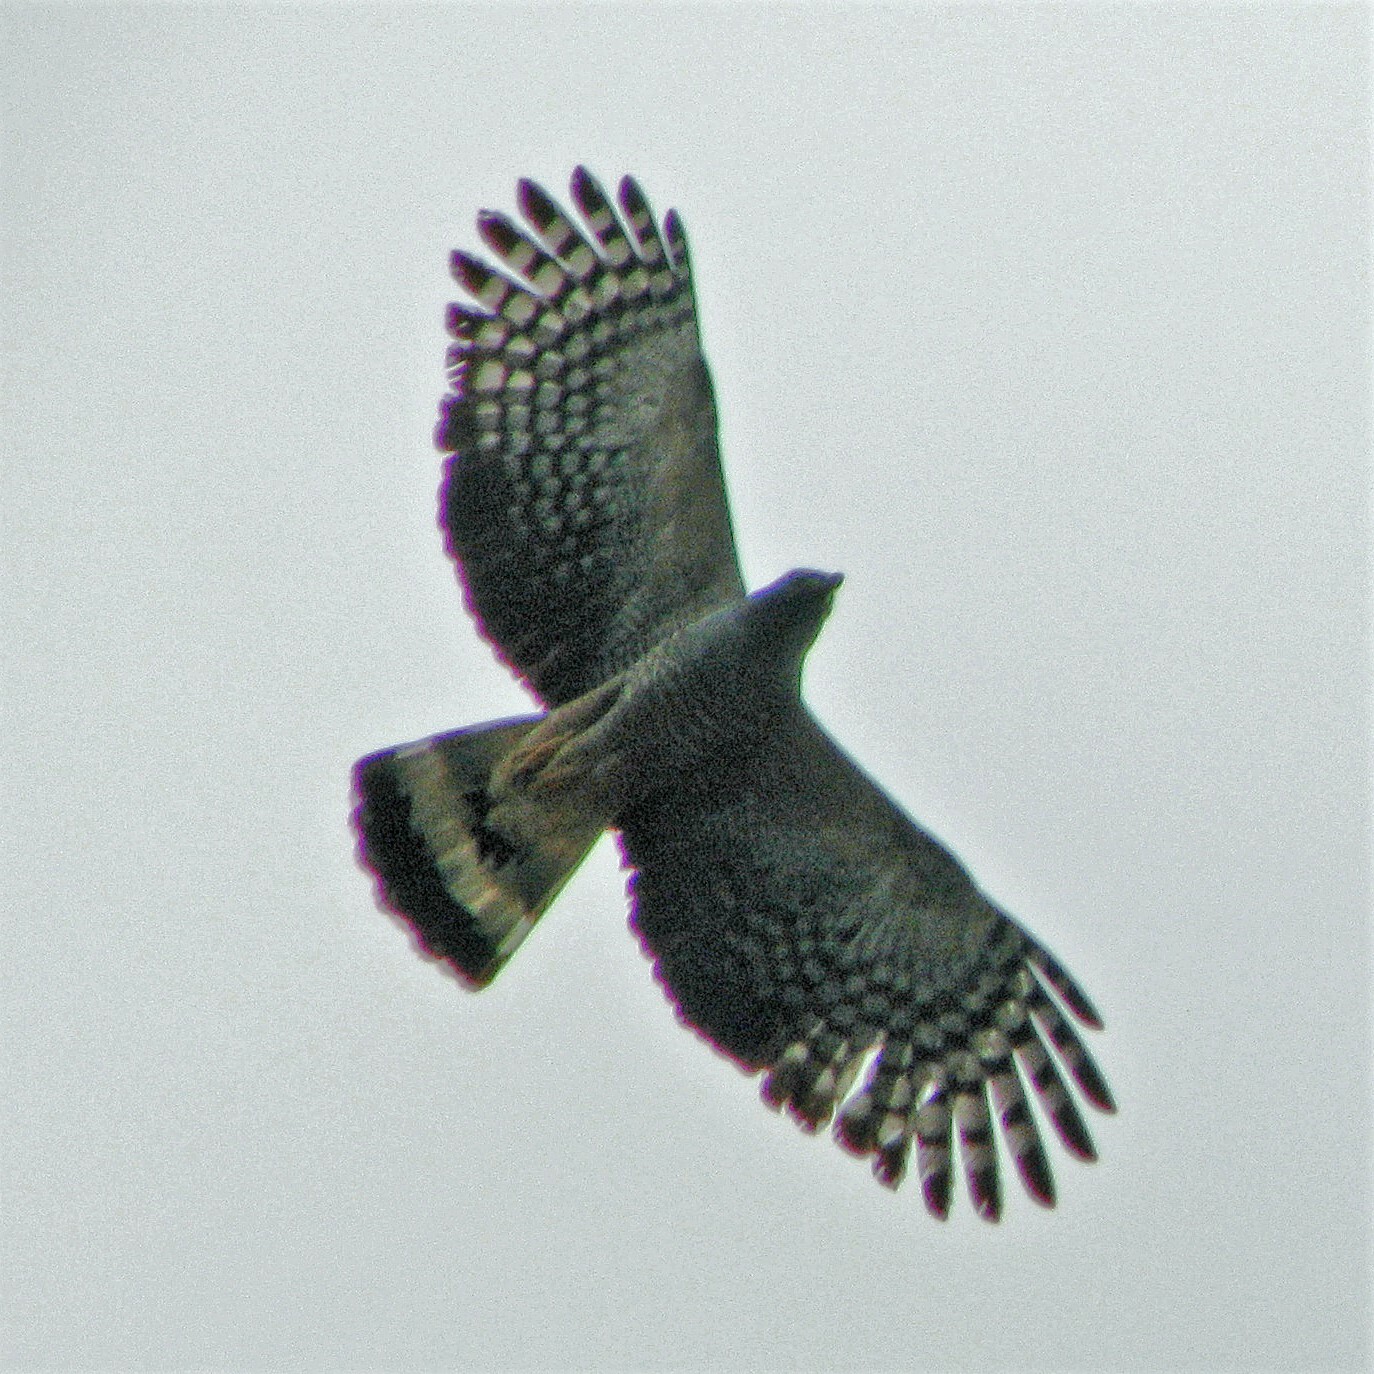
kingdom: Animalia
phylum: Chordata
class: Aves
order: Accipitriformes
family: Accipitridae
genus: Chondrohierax
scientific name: Chondrohierax uncinatus
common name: Hook-billed kite
